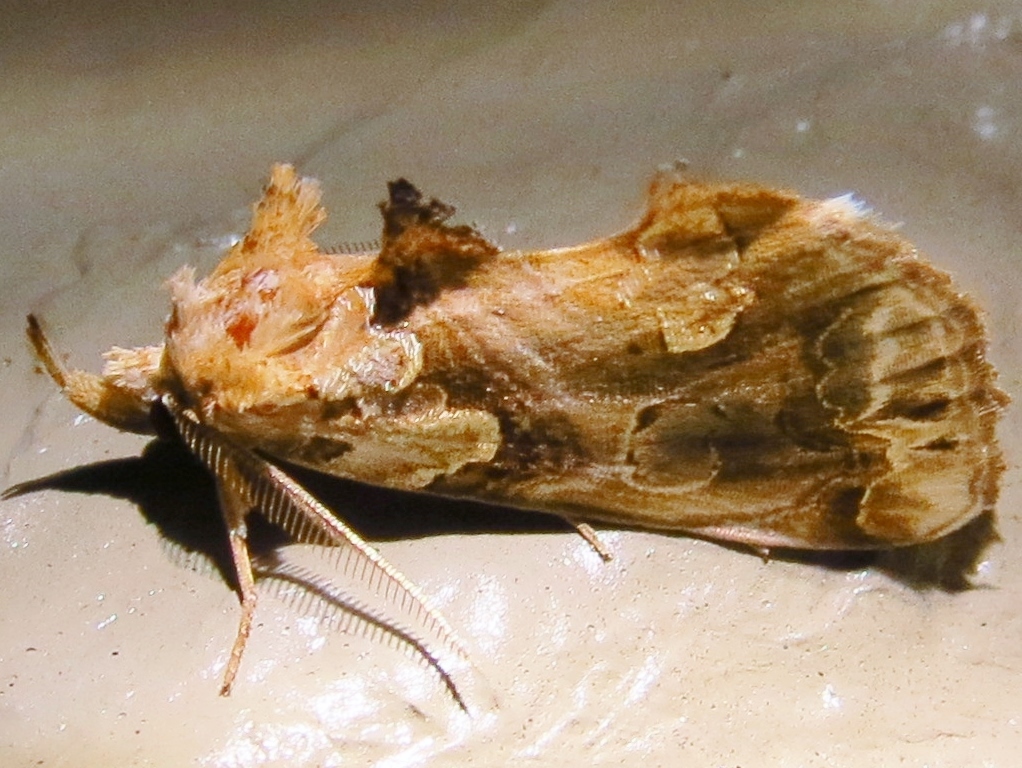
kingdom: Animalia
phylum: Arthropoda
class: Insecta
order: Lepidoptera
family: Erebidae
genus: Plusiodonta
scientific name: Plusiodonta compressipalpis
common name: Moonseed moth
